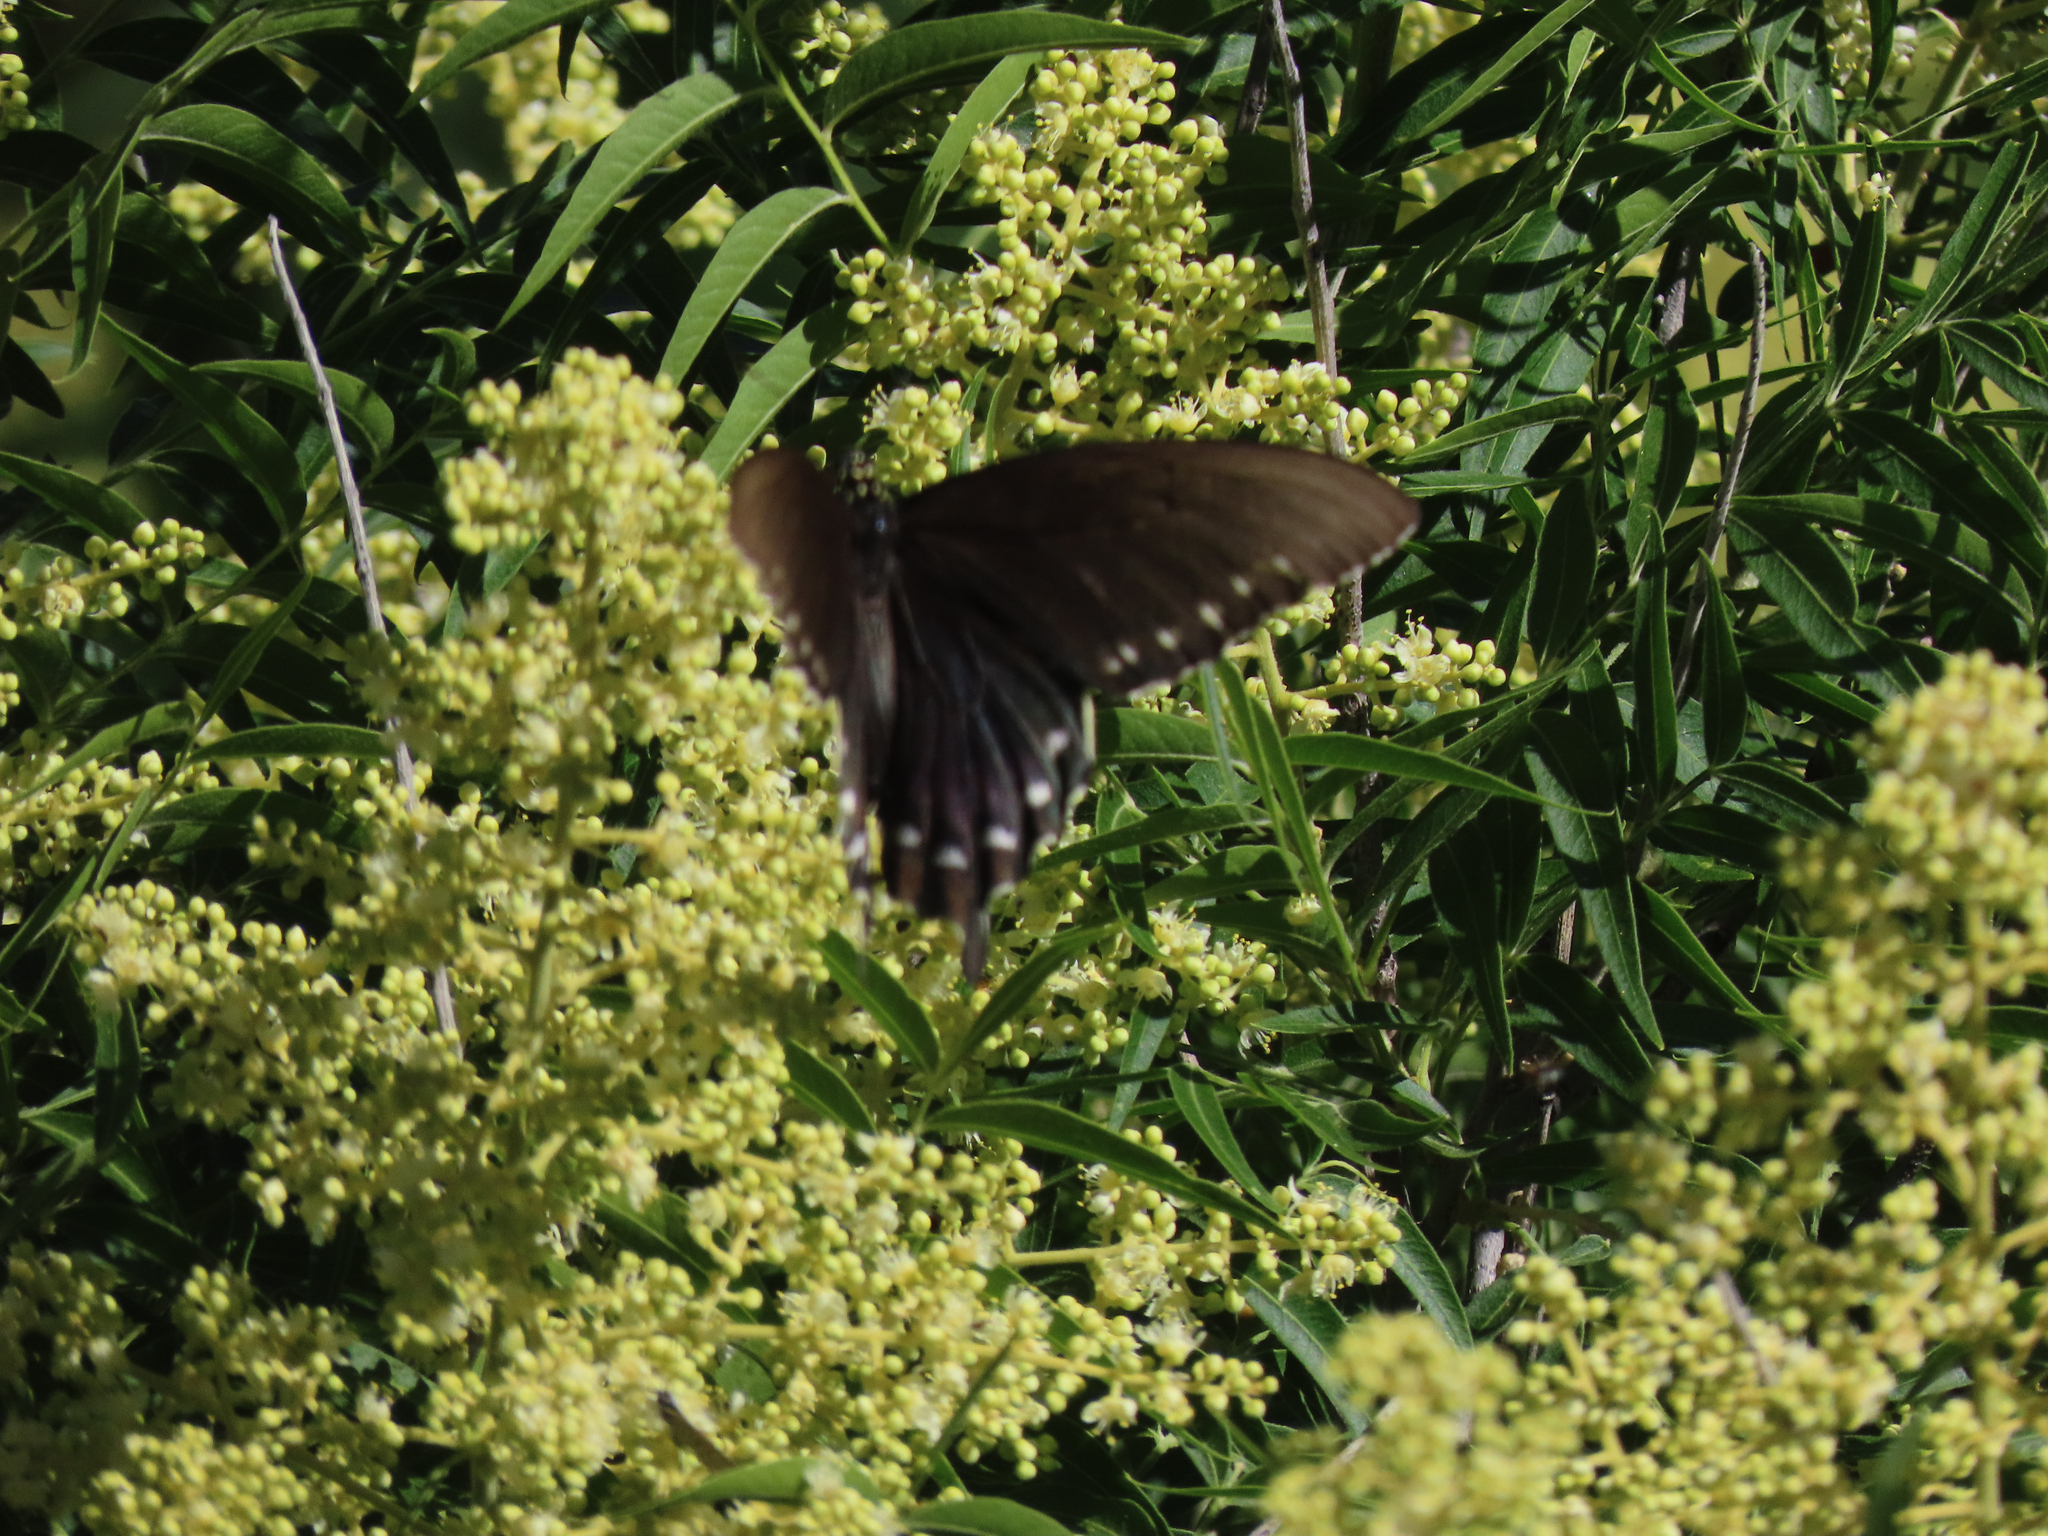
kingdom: Animalia
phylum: Arthropoda
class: Insecta
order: Lepidoptera
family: Papilionidae
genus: Battus
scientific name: Battus philenor
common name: Pipevine swallowtail
